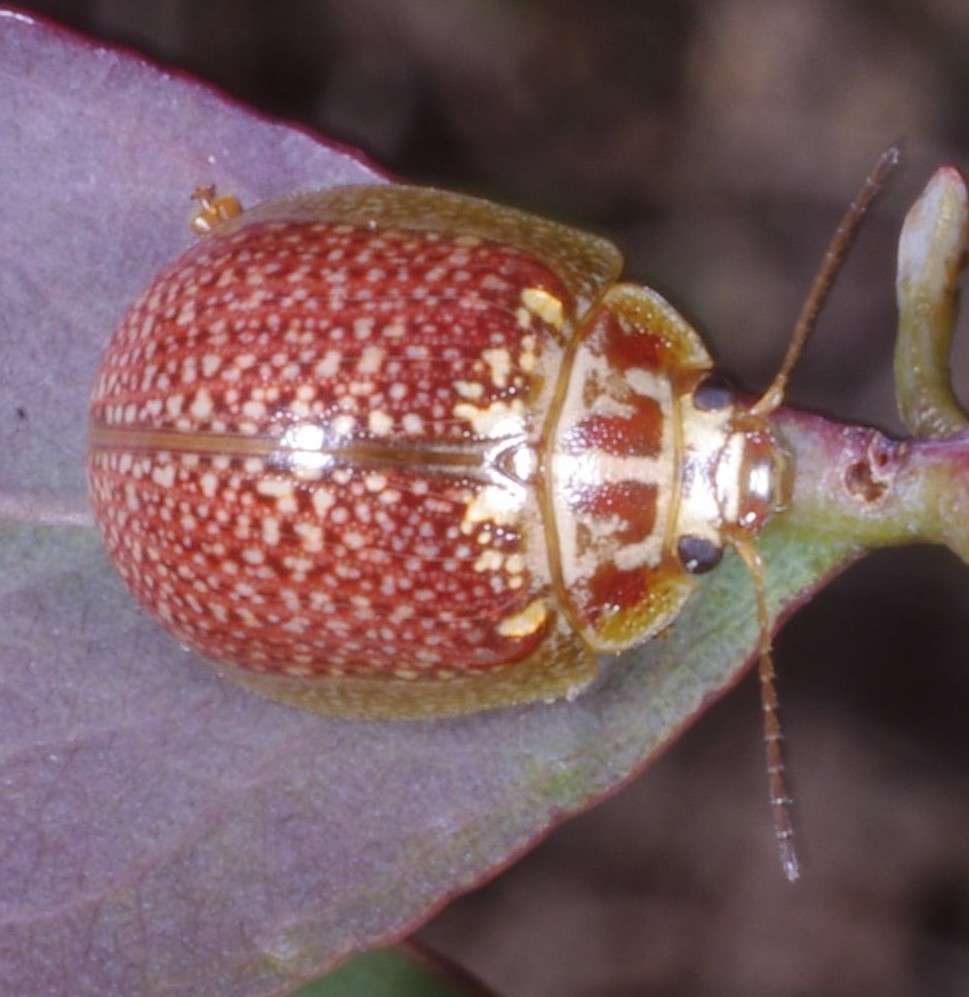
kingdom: Animalia
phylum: Arthropoda
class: Insecta
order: Coleoptera
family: Chrysomelidae
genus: Paropsisterna
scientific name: Paropsisterna decolorata
